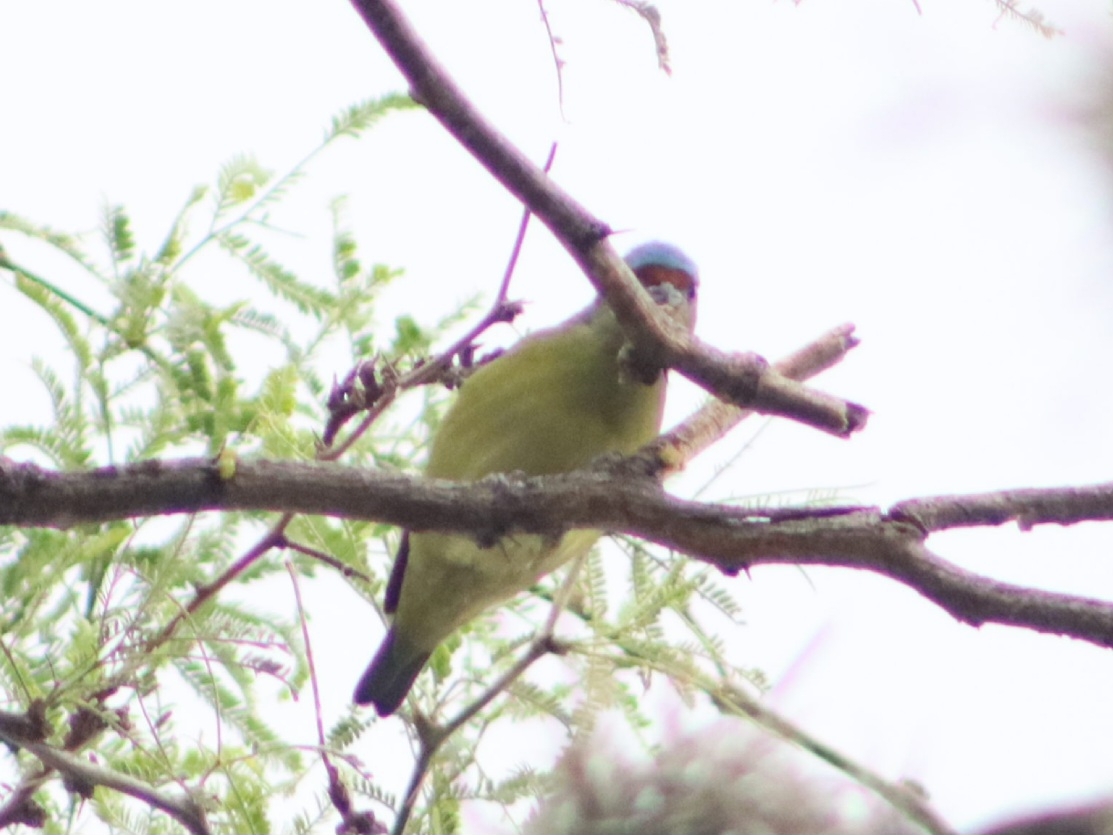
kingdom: Animalia
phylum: Chordata
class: Aves
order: Passeriformes
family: Fringillidae
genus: Euphonia
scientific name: Euphonia elegantissima
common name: Elegant euphonia
